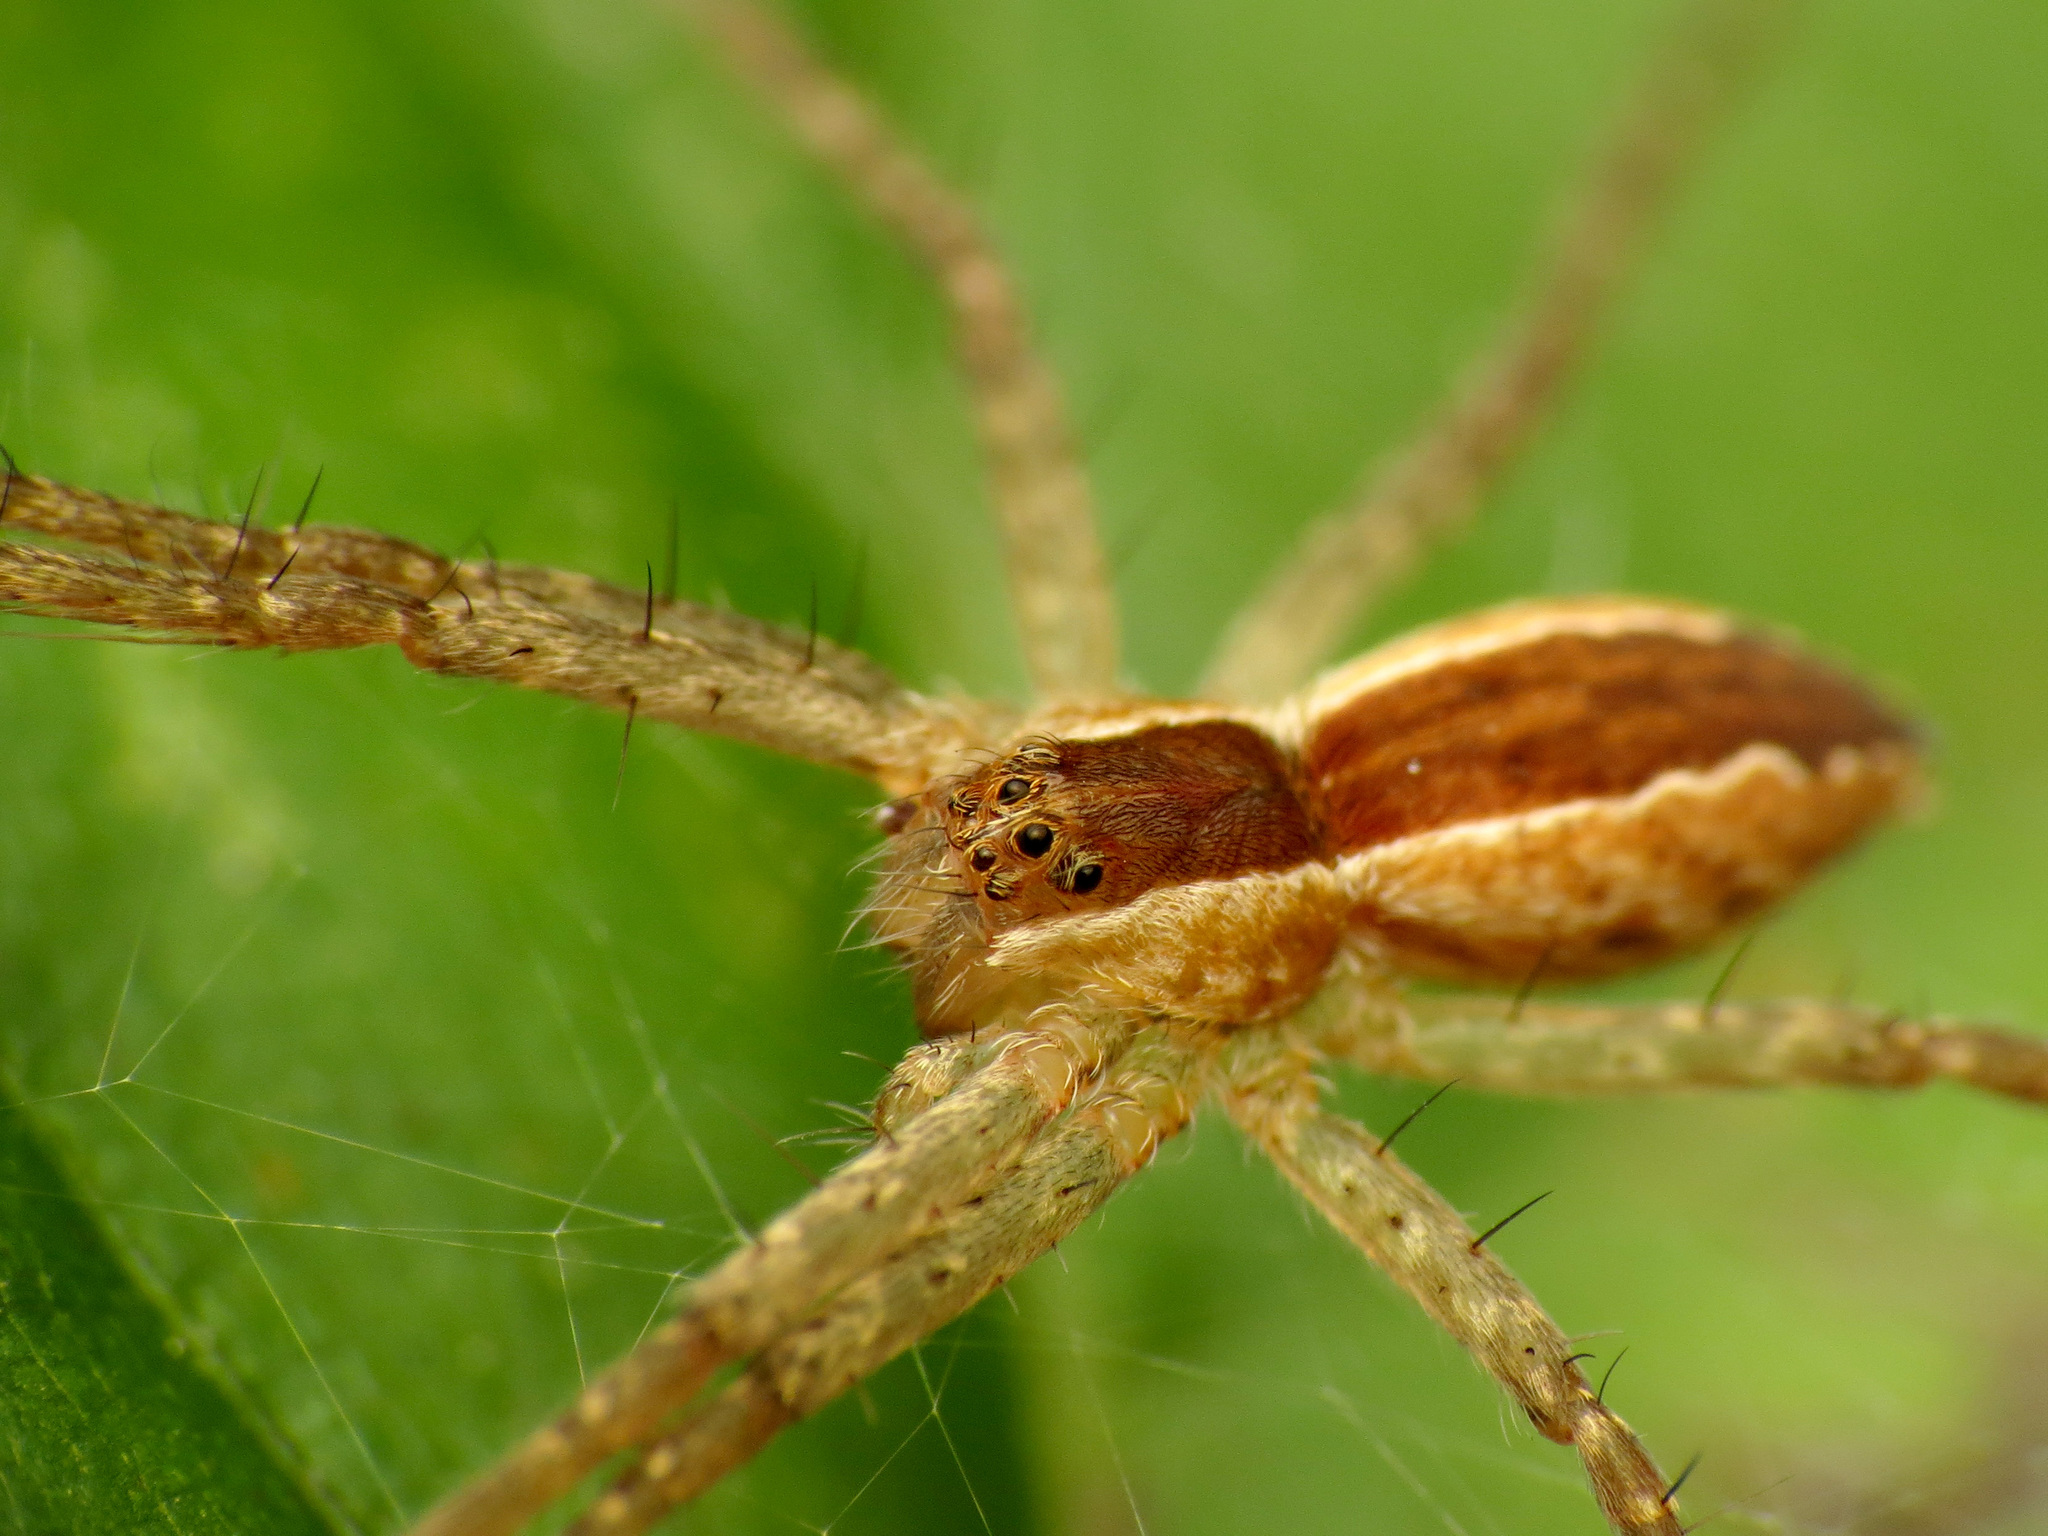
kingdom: Animalia
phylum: Arthropoda
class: Arachnida
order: Araneae
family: Pisauridae
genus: Pisaurina
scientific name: Pisaurina mira
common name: American nursery web spider
